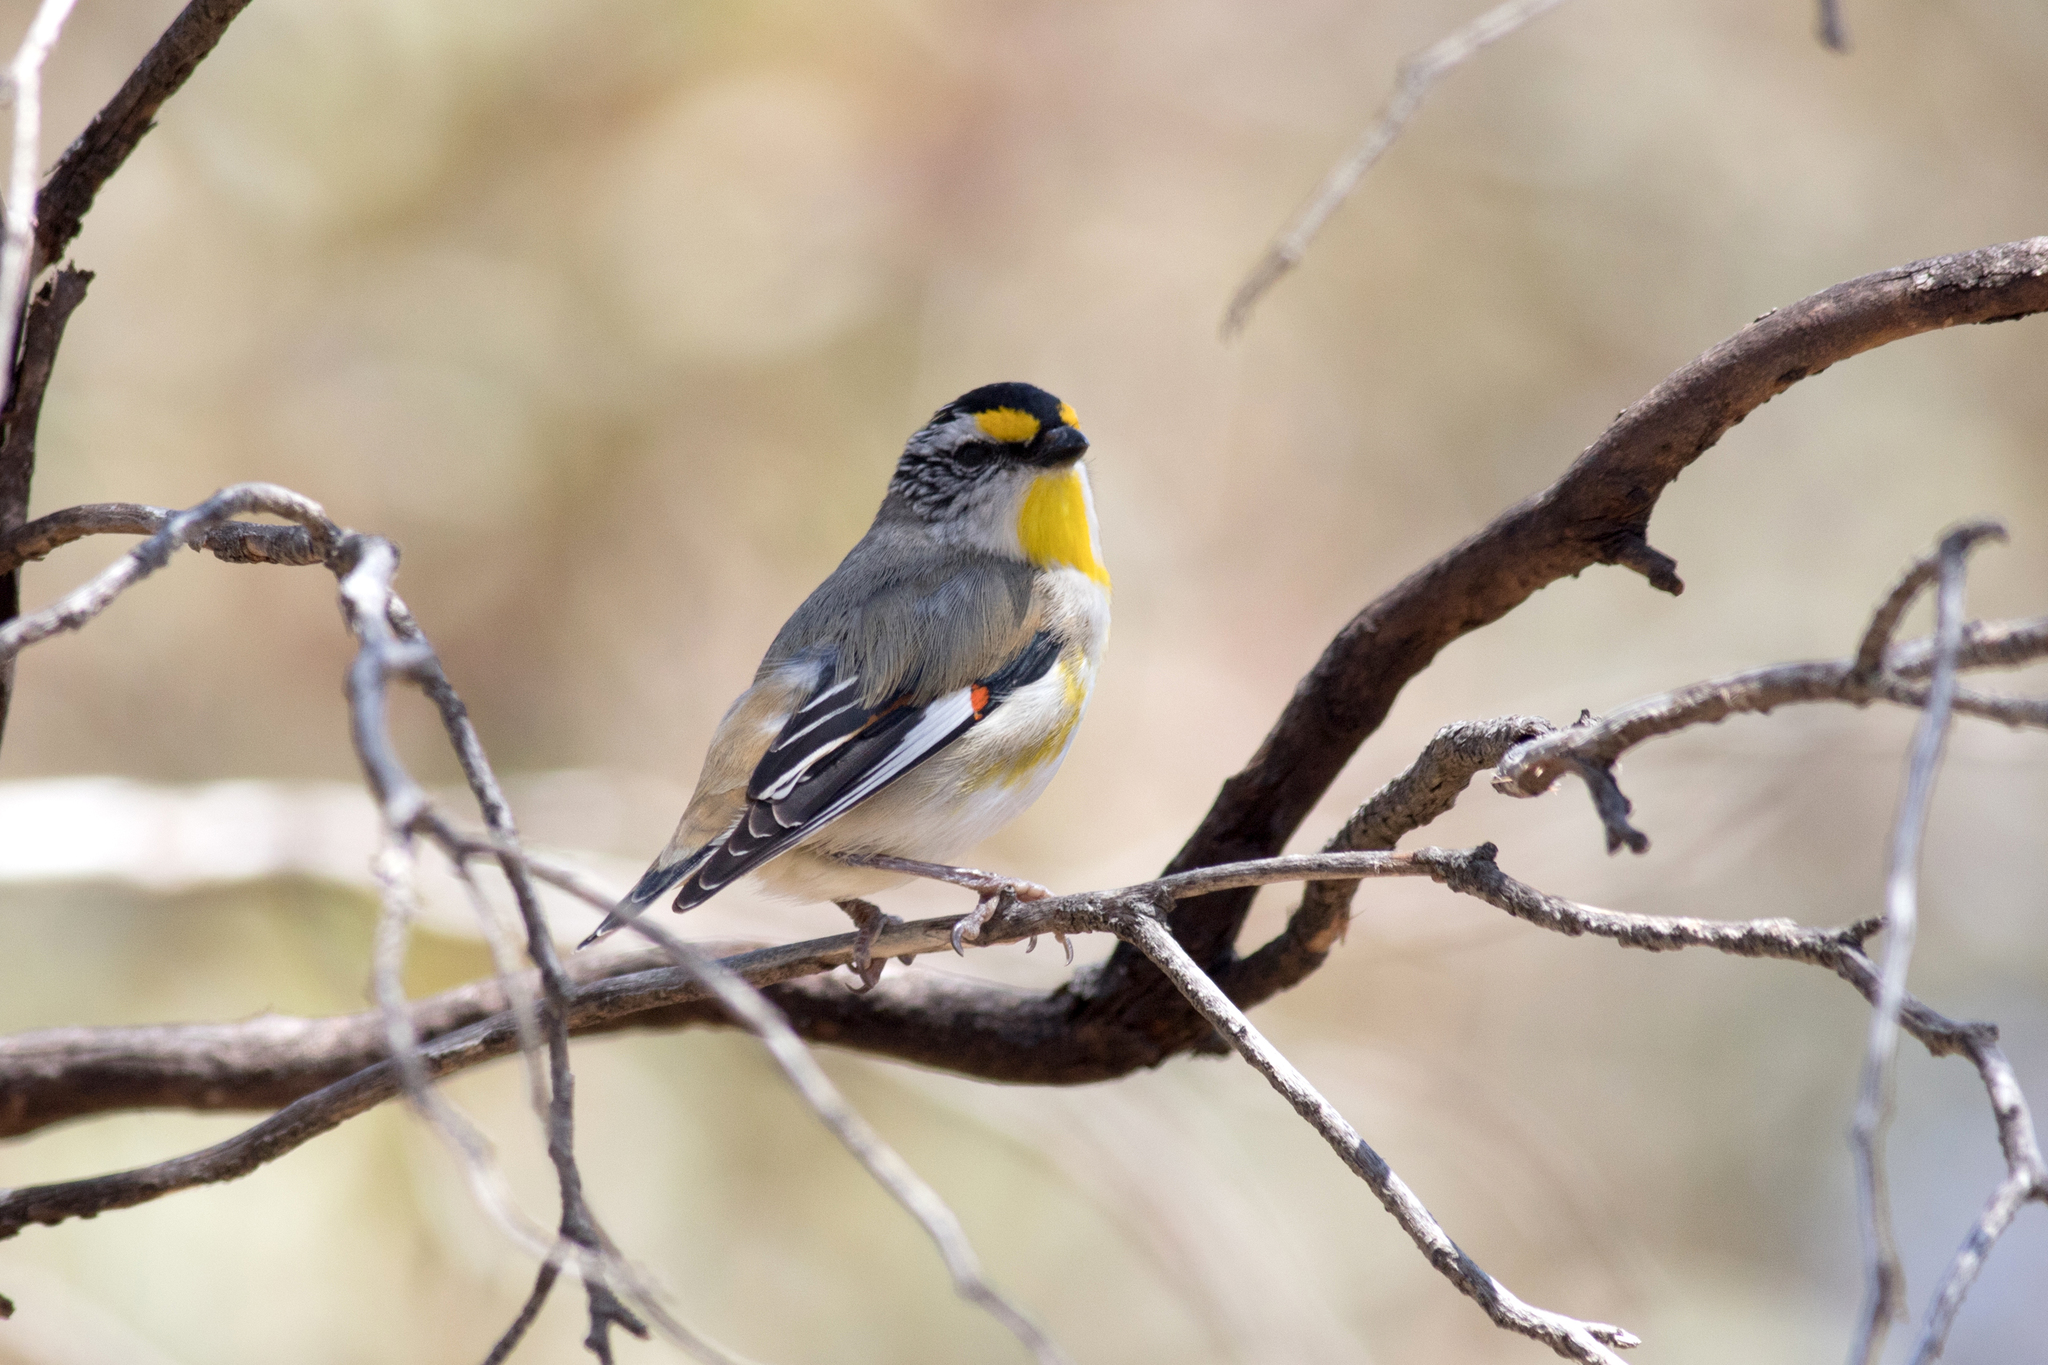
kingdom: Animalia
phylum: Chordata
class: Aves
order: Passeriformes
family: Pardalotidae
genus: Pardalotus
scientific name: Pardalotus striatus
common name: Striated pardalote
